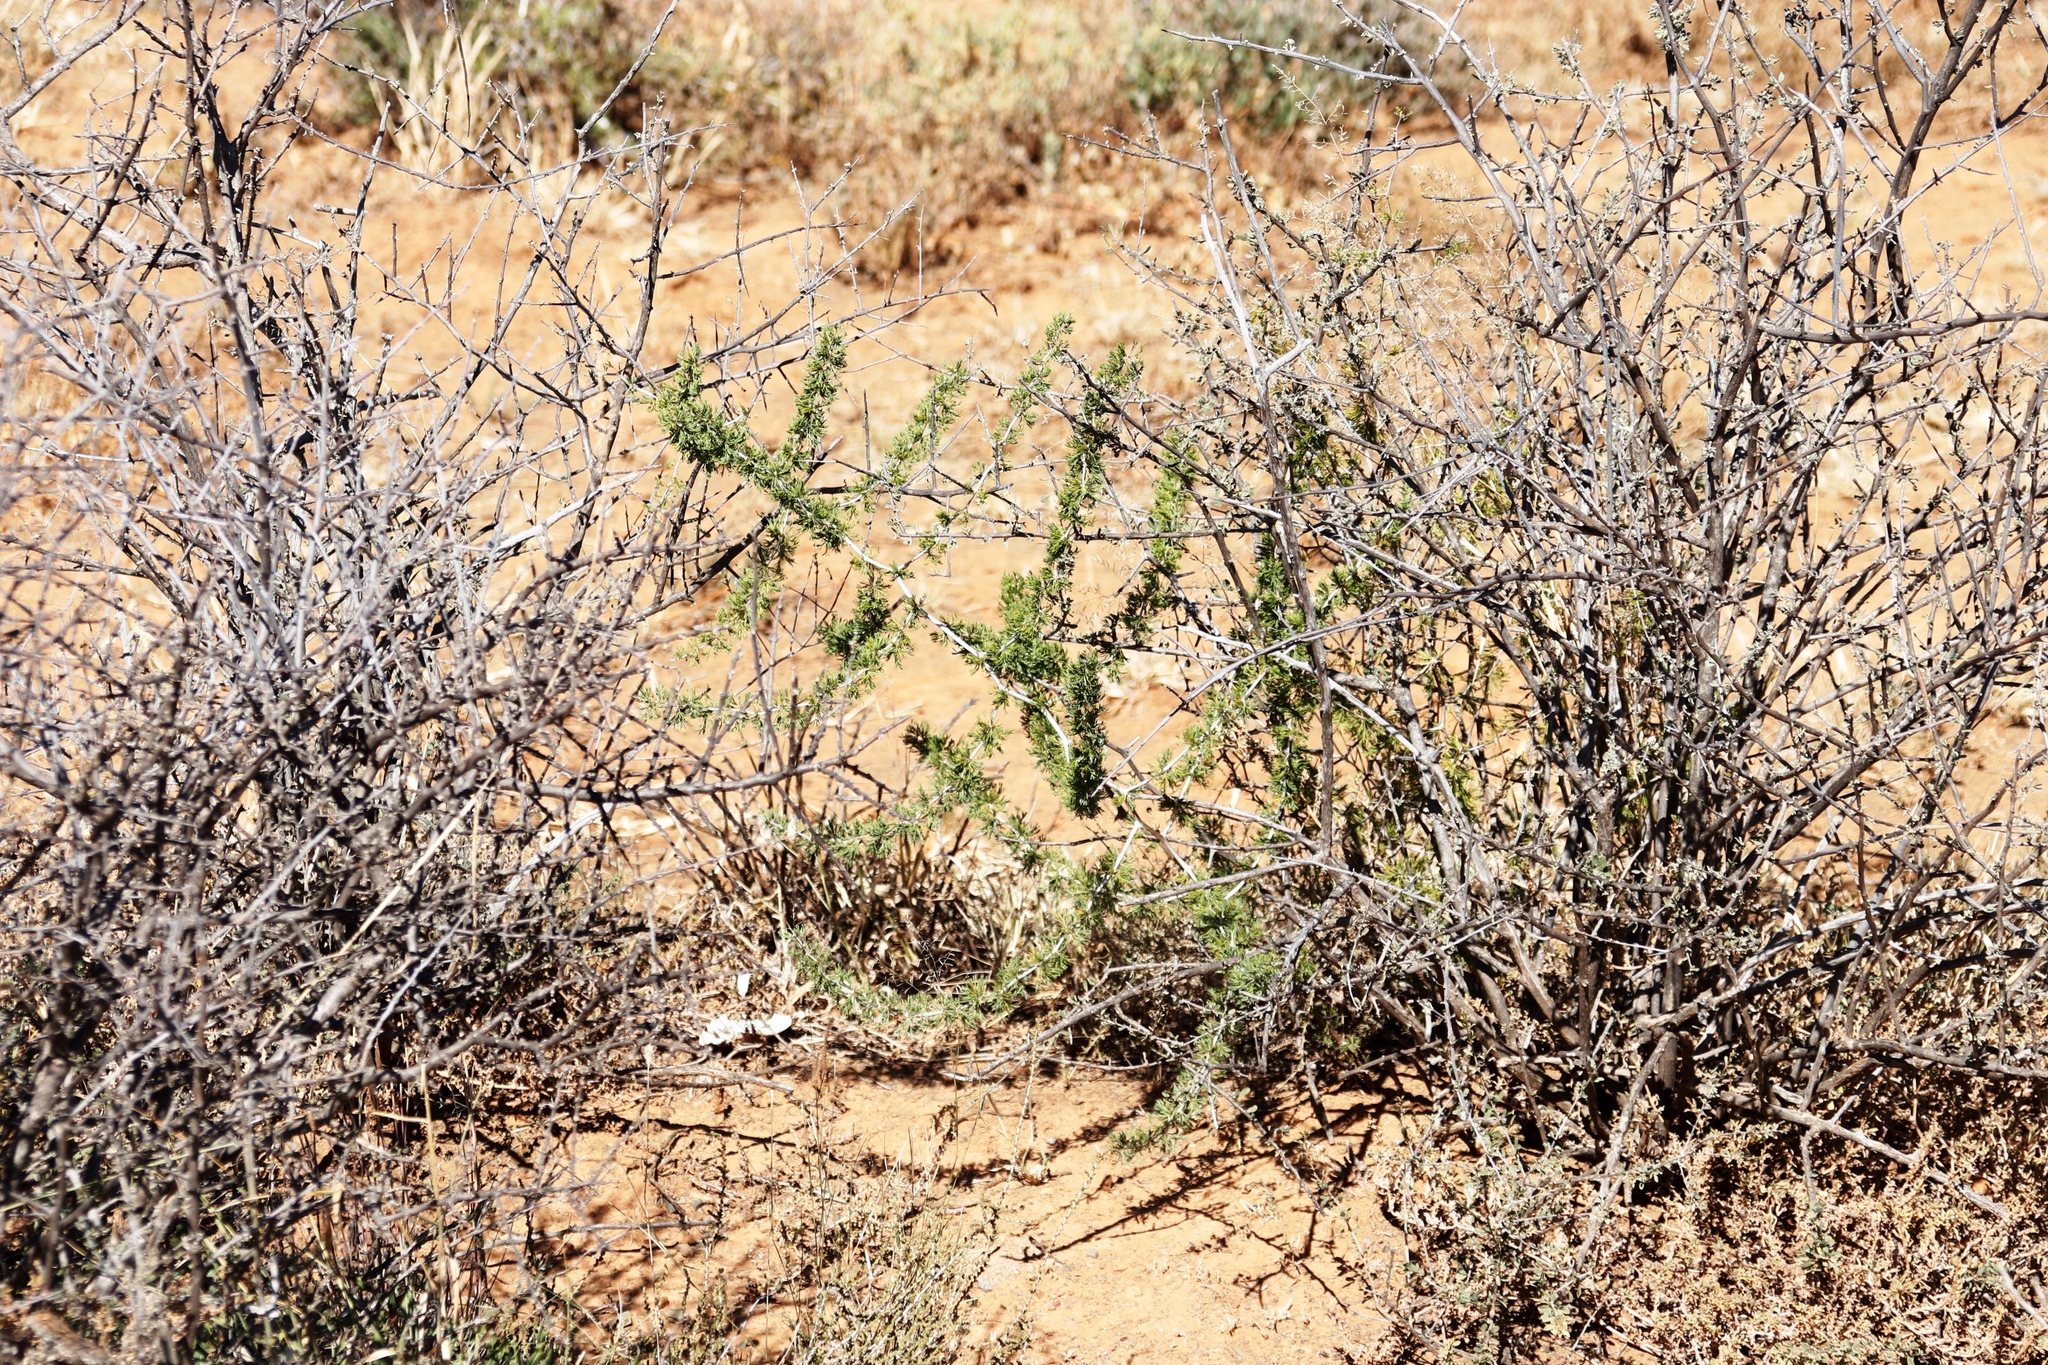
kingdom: Plantae
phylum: Tracheophyta
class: Liliopsida
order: Asparagales
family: Asparagaceae
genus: Asparagus
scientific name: Asparagus burchellii
